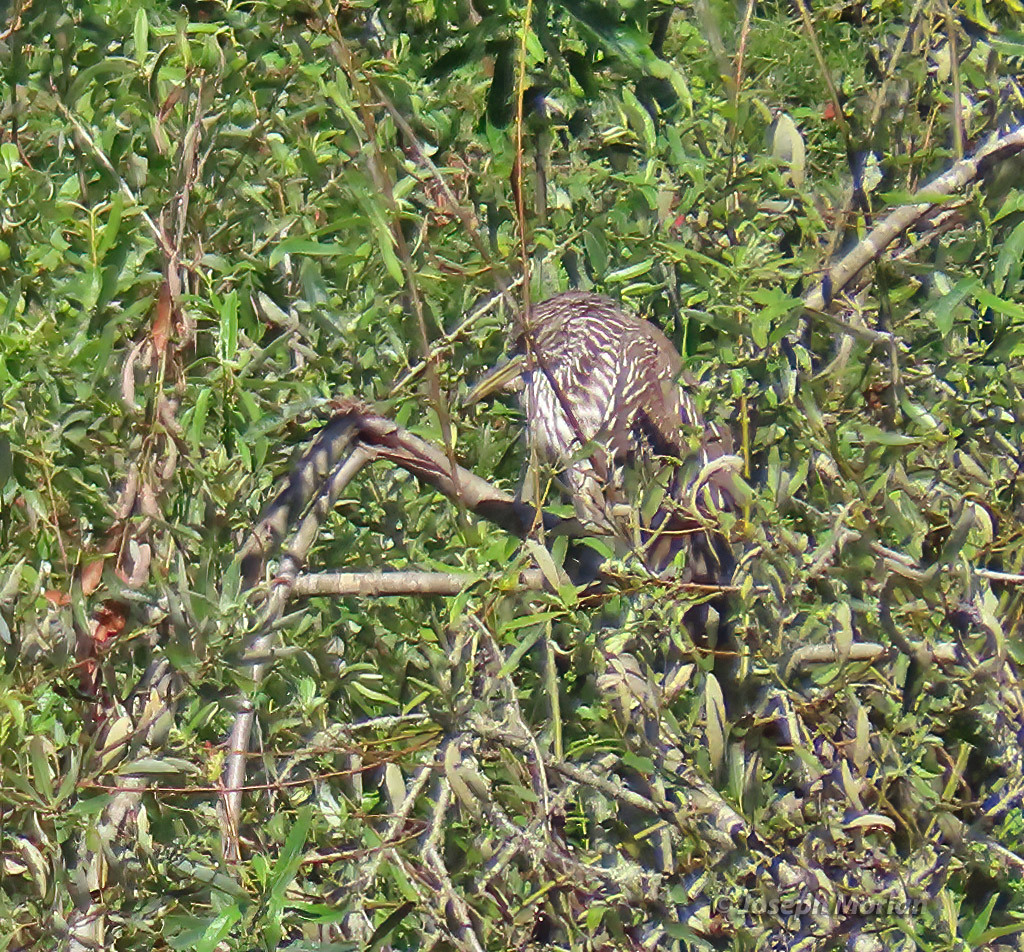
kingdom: Animalia
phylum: Chordata
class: Aves
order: Pelecaniformes
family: Ardeidae
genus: Nycticorax
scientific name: Nycticorax nycticorax
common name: Black-crowned night heron
